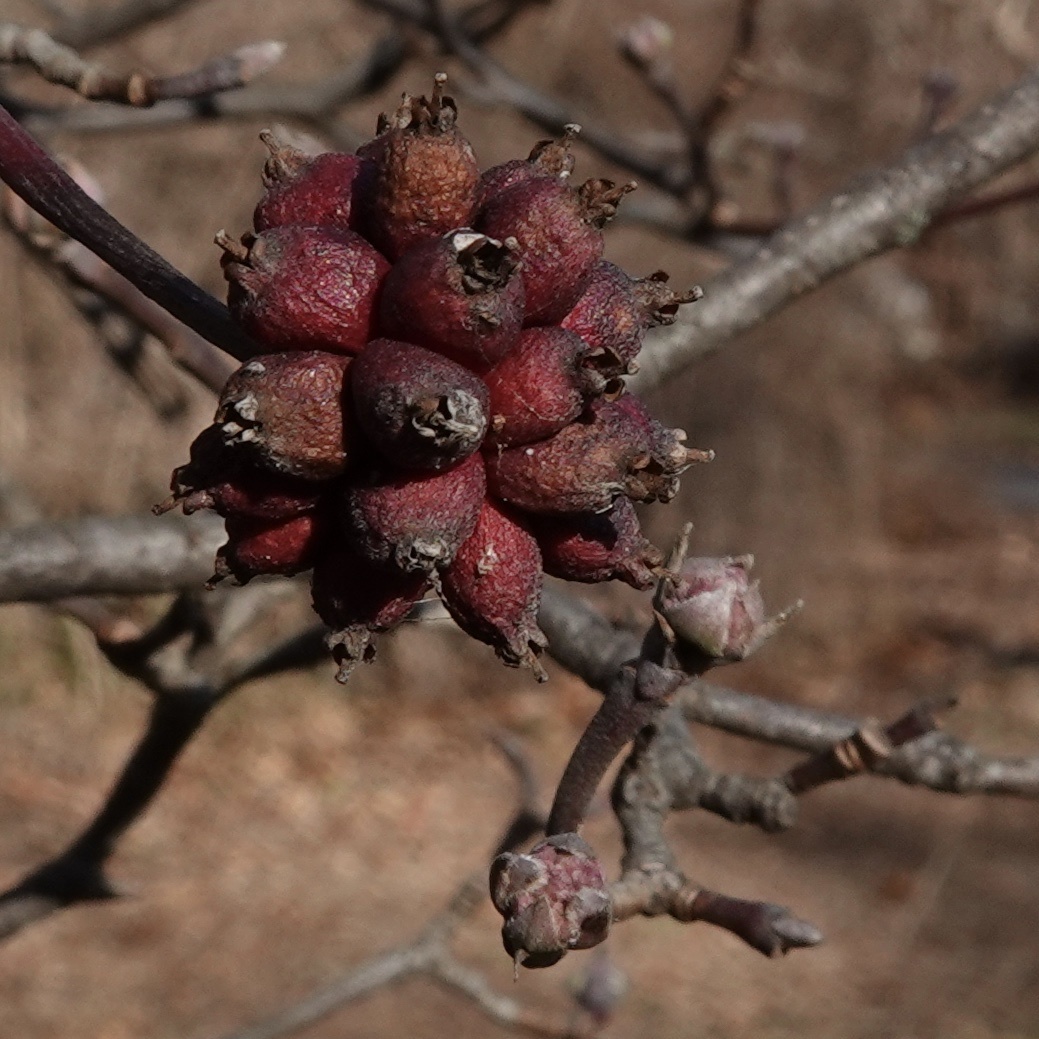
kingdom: Plantae
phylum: Tracheophyta
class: Magnoliopsida
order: Cornales
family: Cornaceae
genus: Cornus
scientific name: Cornus florida
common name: Flowering dogwood
